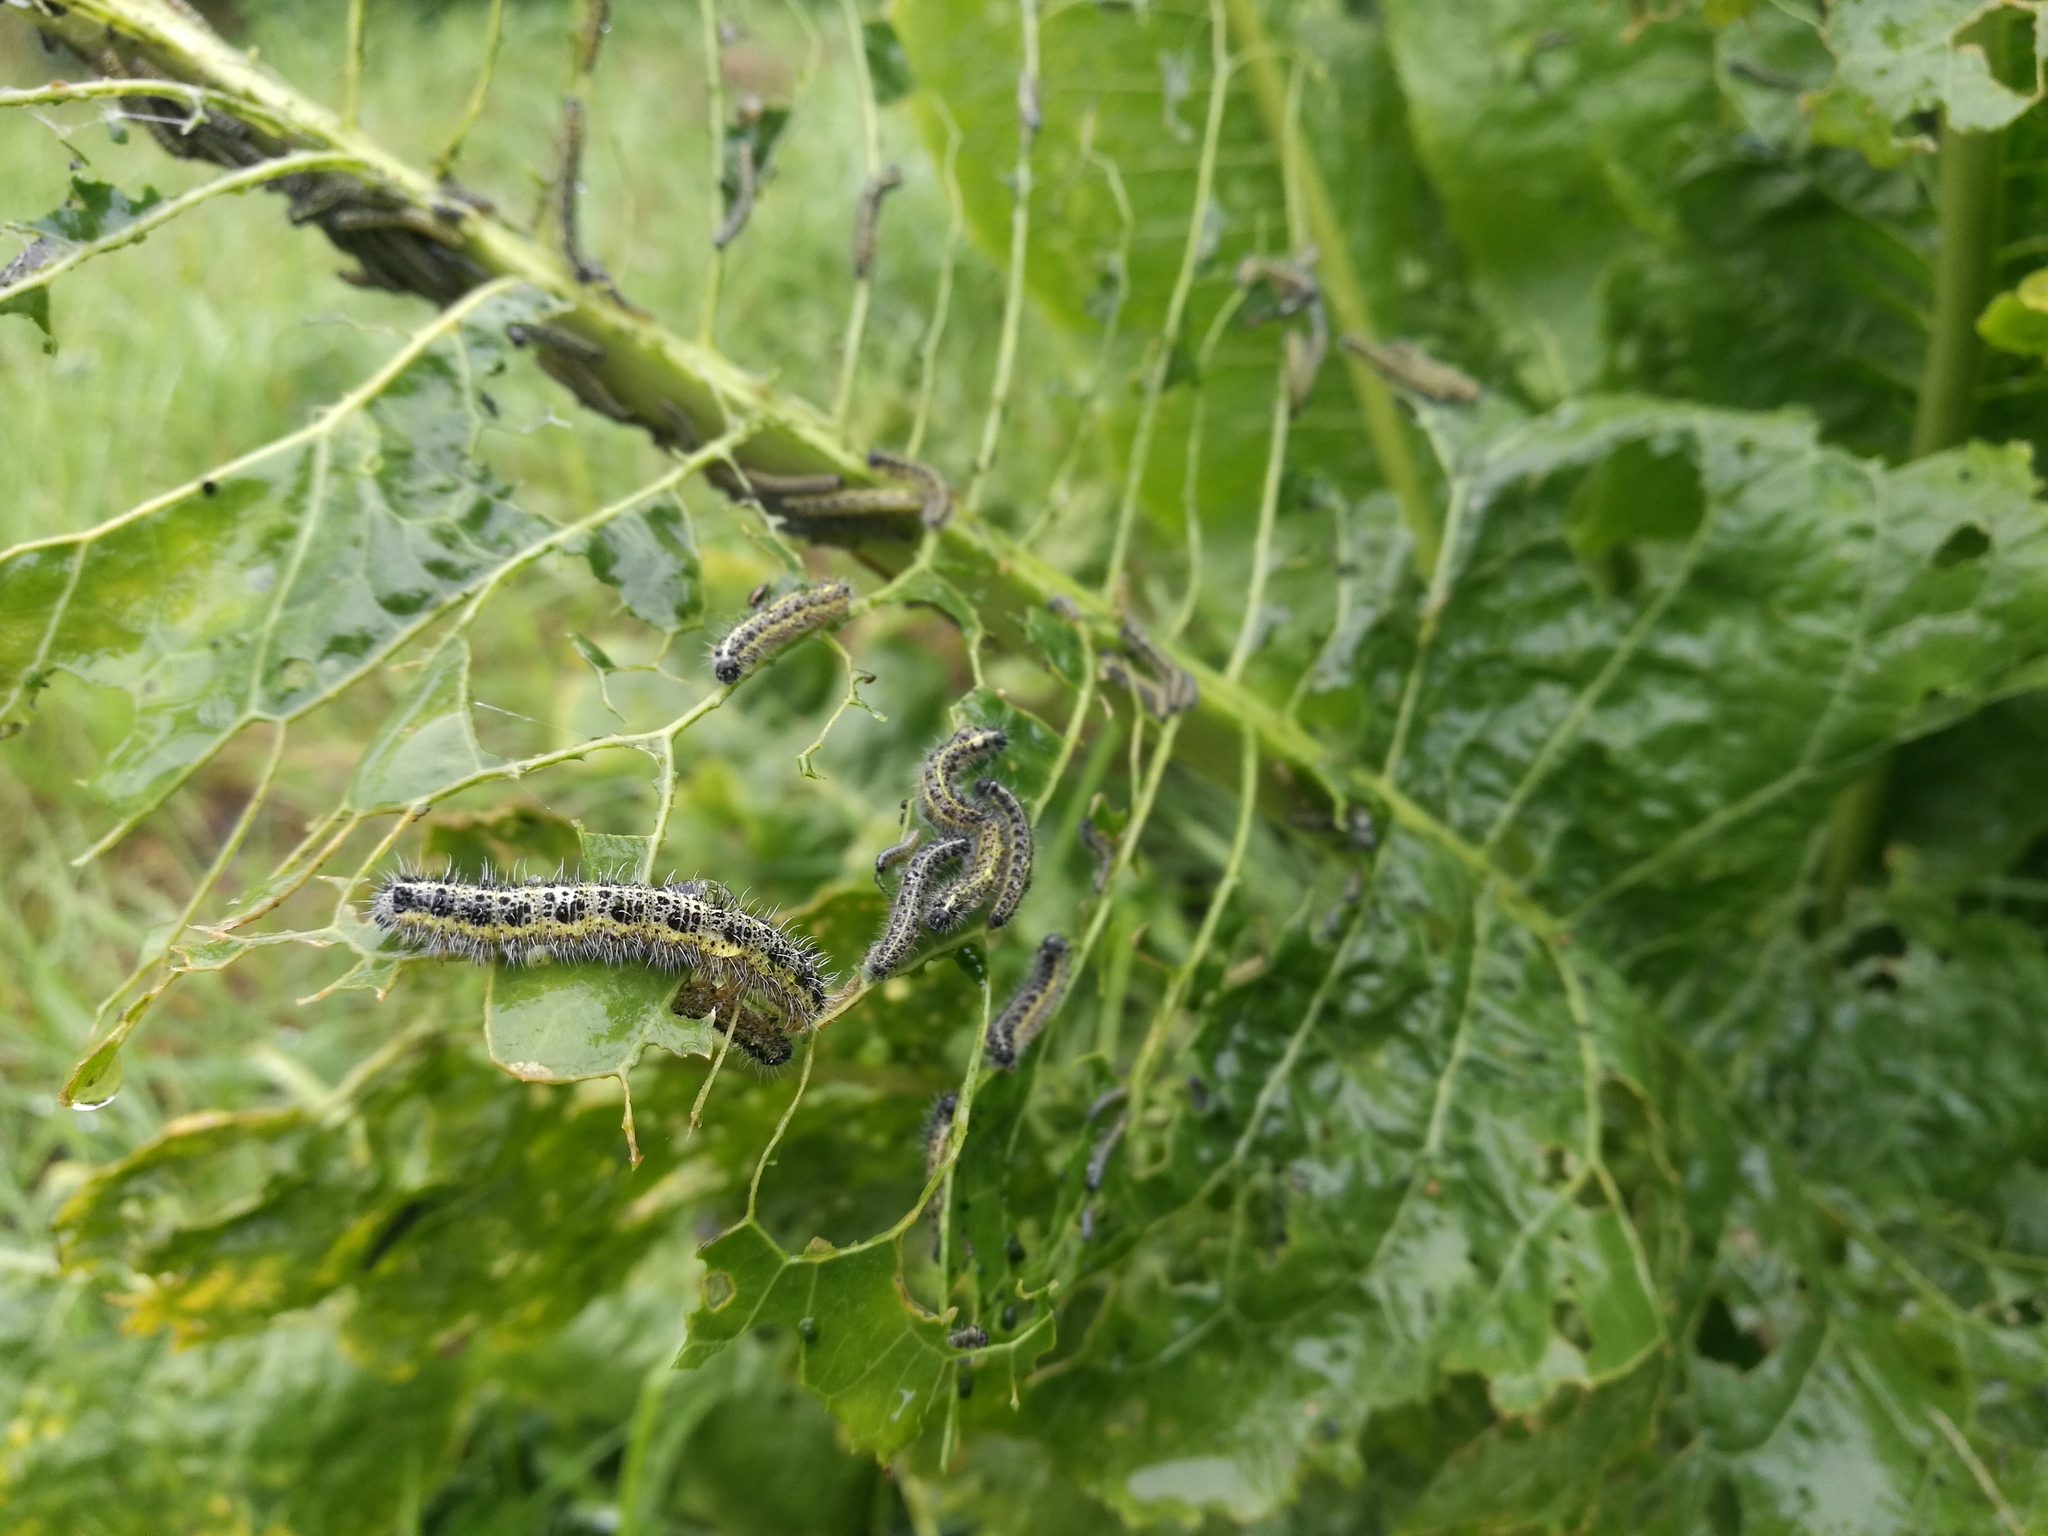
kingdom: Animalia
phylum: Arthropoda
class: Insecta
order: Lepidoptera
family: Pieridae
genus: Pieris
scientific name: Pieris brassicae
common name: Large white
